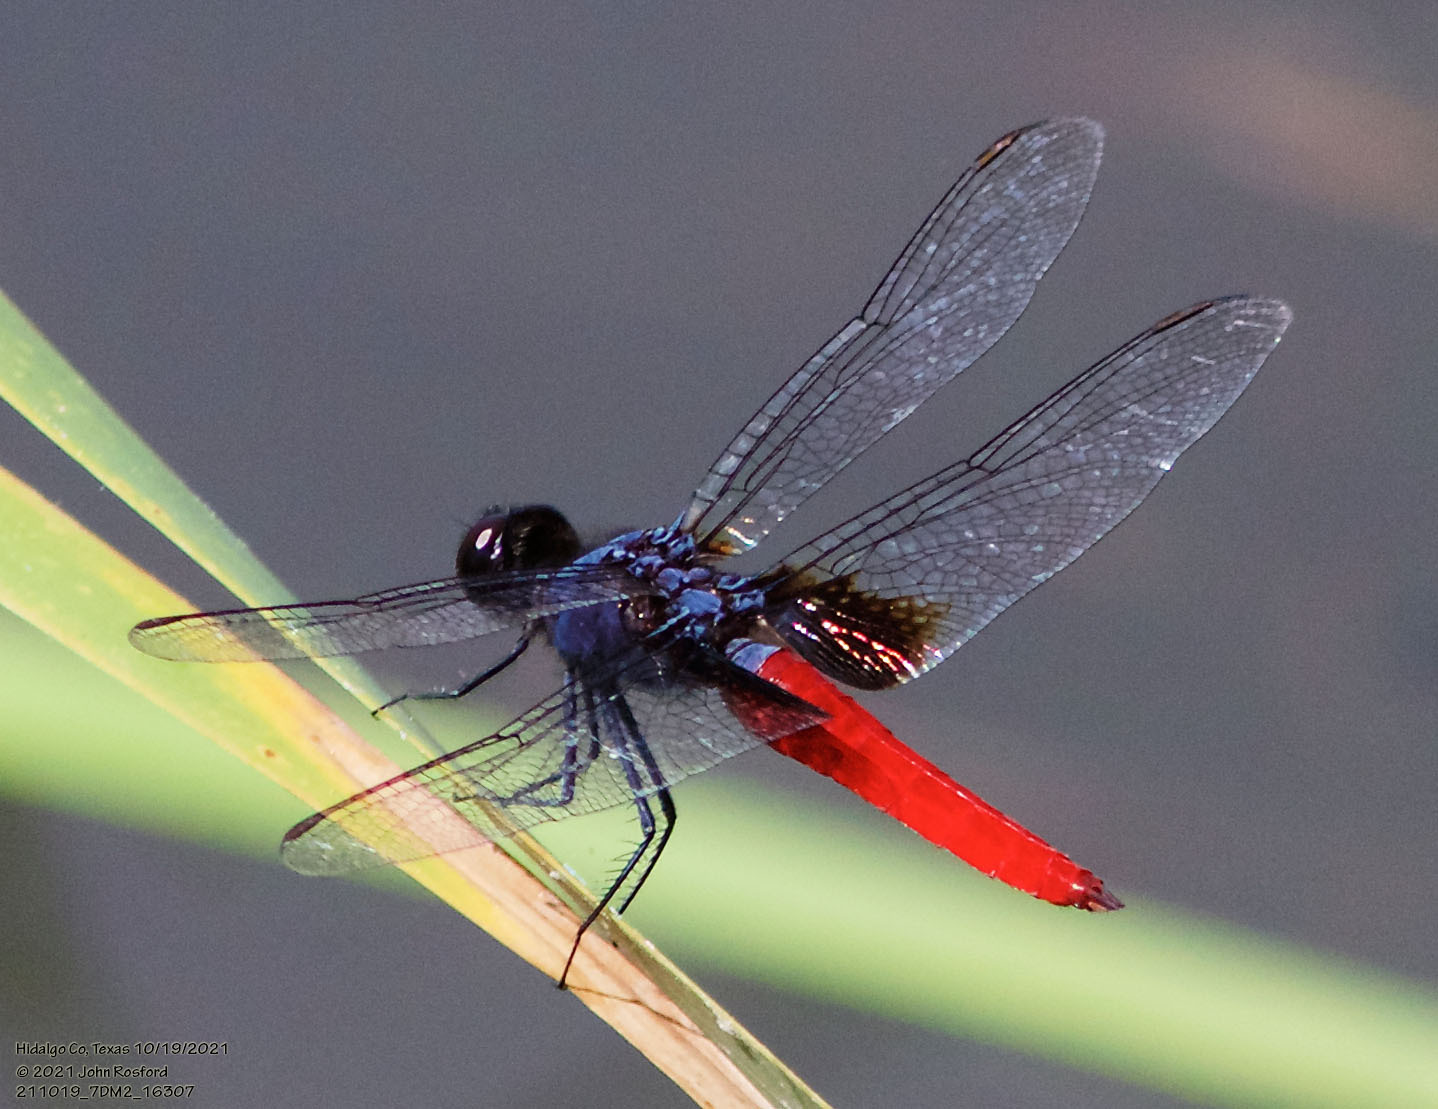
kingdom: Animalia
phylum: Arthropoda
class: Insecta
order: Odonata
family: Libellulidae
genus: Planiplax
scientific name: Planiplax sanguiniventris
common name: Mexican scarlet-tail
